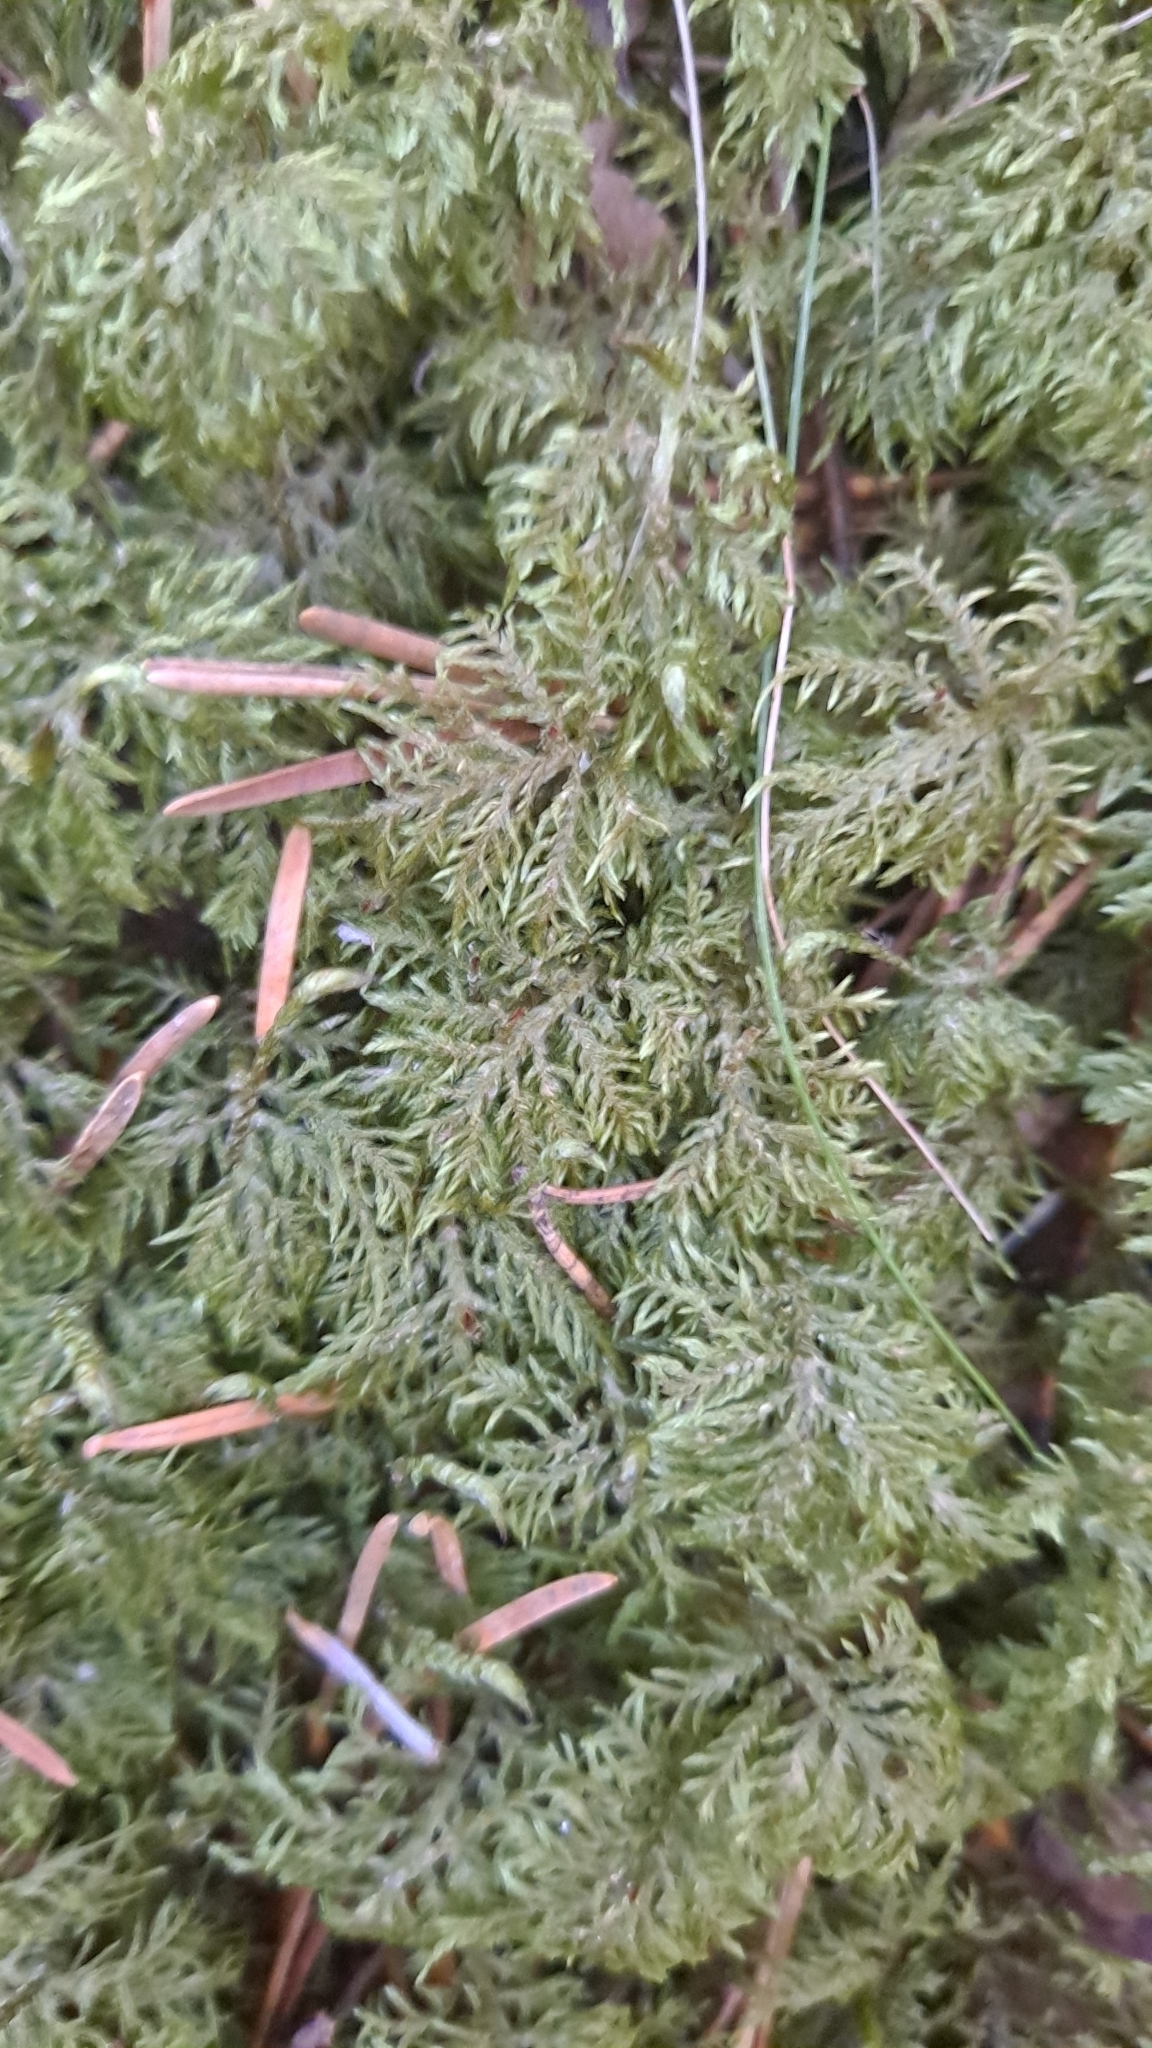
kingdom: Plantae
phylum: Bryophyta
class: Bryopsida
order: Hypnales
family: Hylocomiaceae
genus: Hylocomium
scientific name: Hylocomium splendens
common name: Stairstep moss
